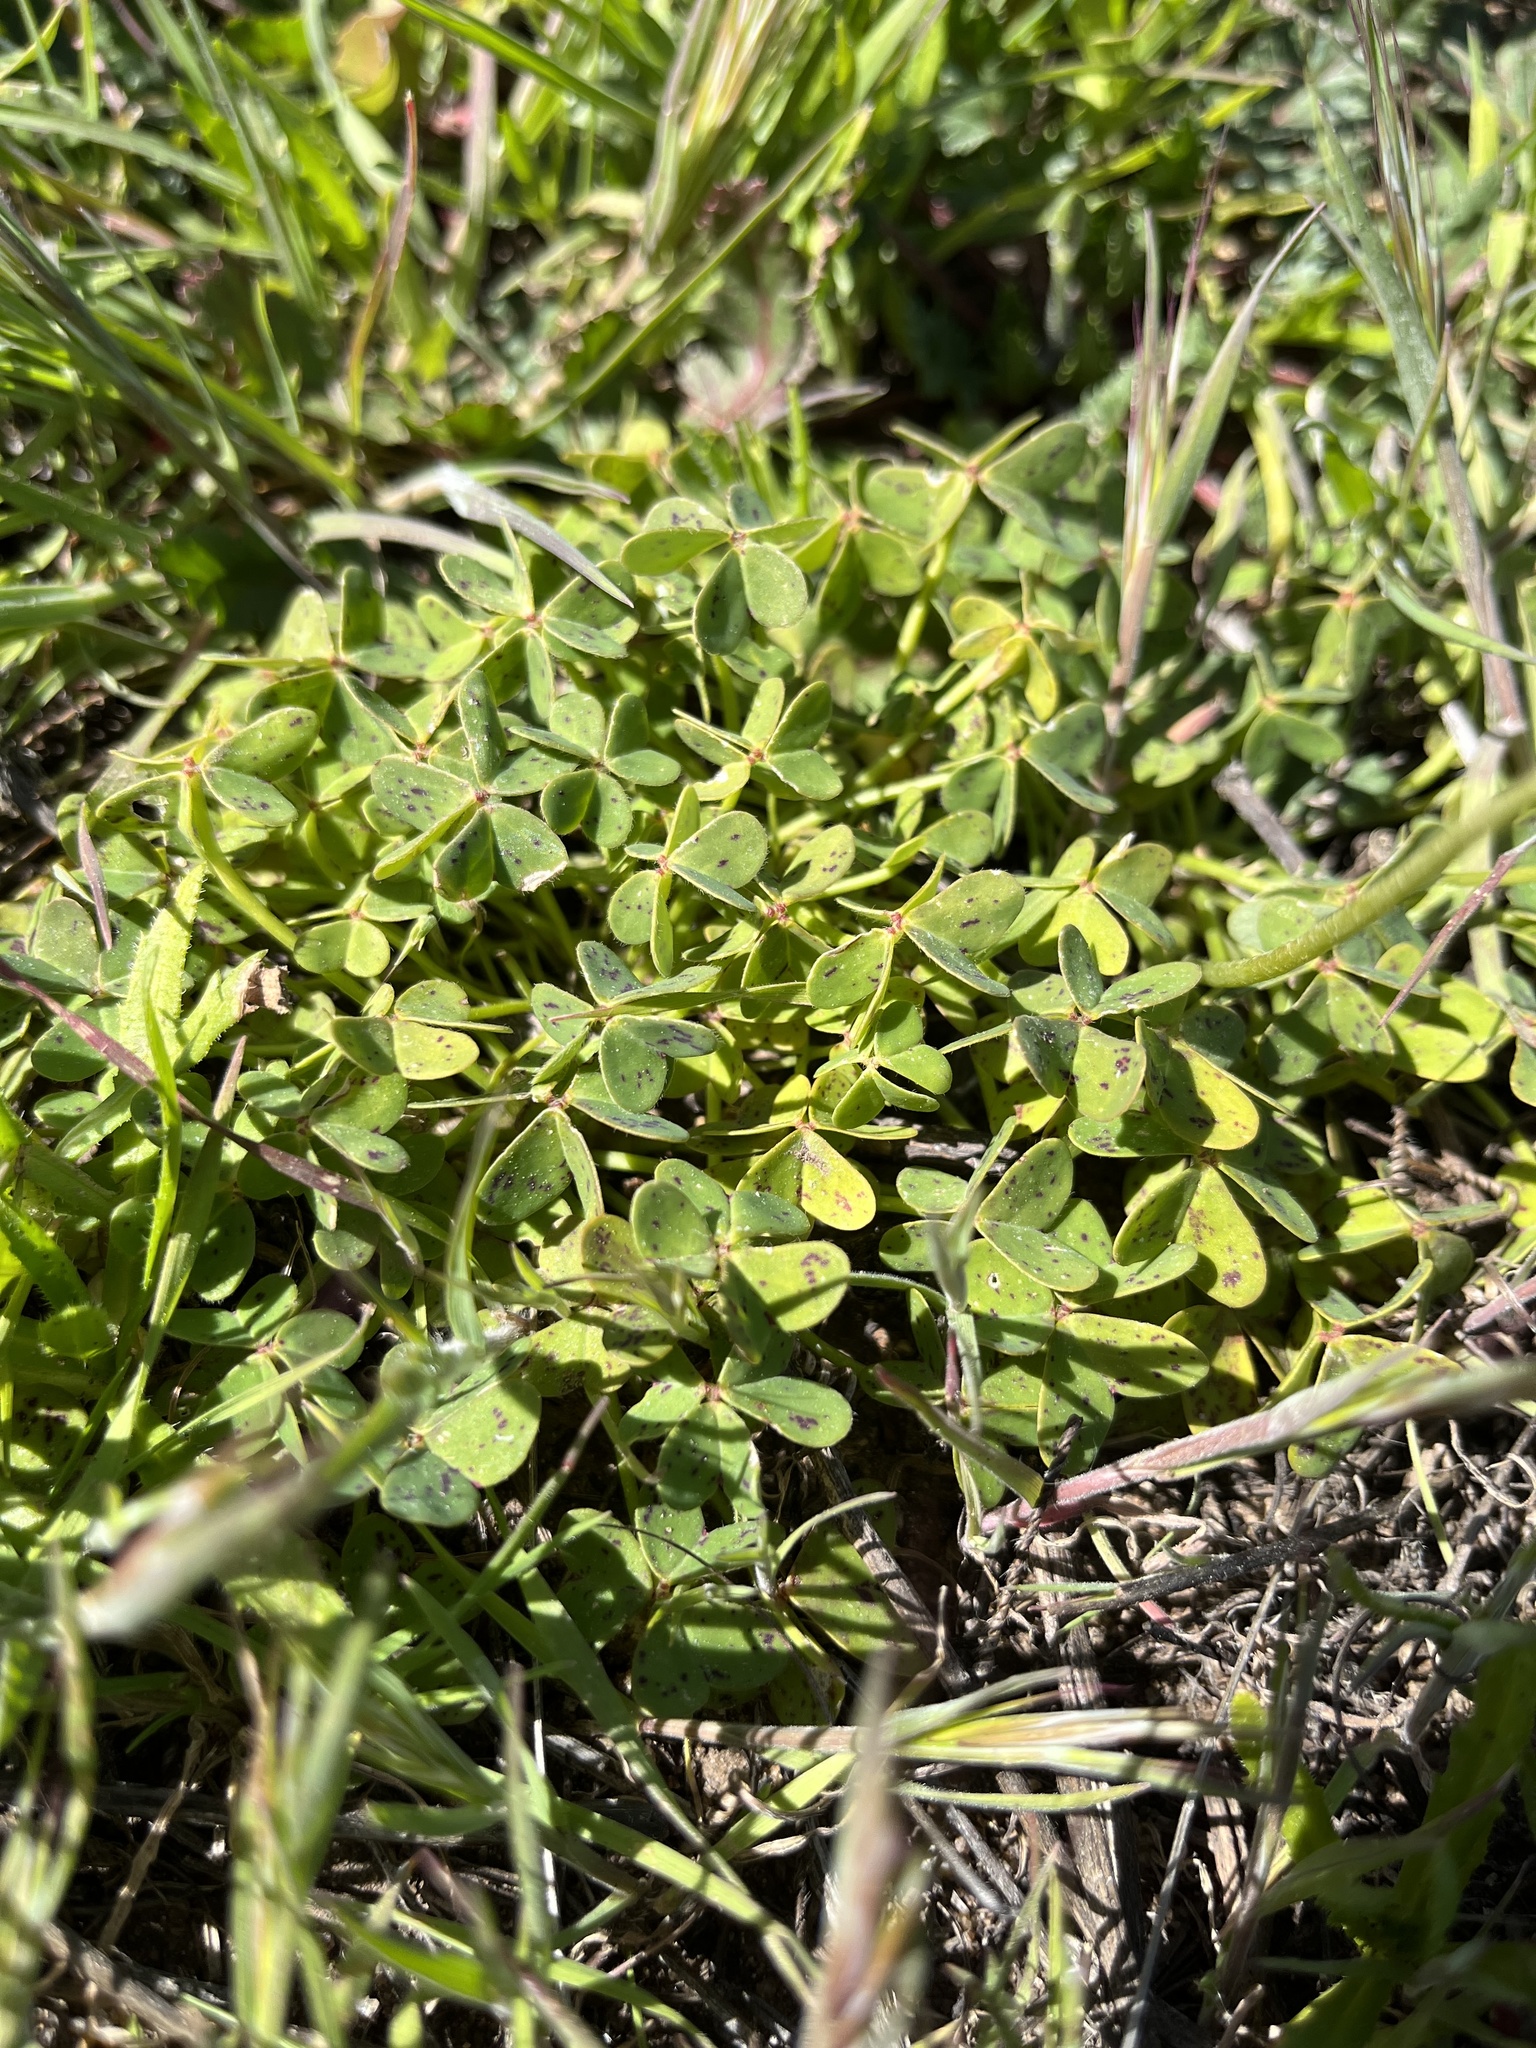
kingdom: Plantae
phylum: Tracheophyta
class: Magnoliopsida
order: Oxalidales
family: Oxalidaceae
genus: Oxalis
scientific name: Oxalis pes-caprae
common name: Bermuda-buttercup
